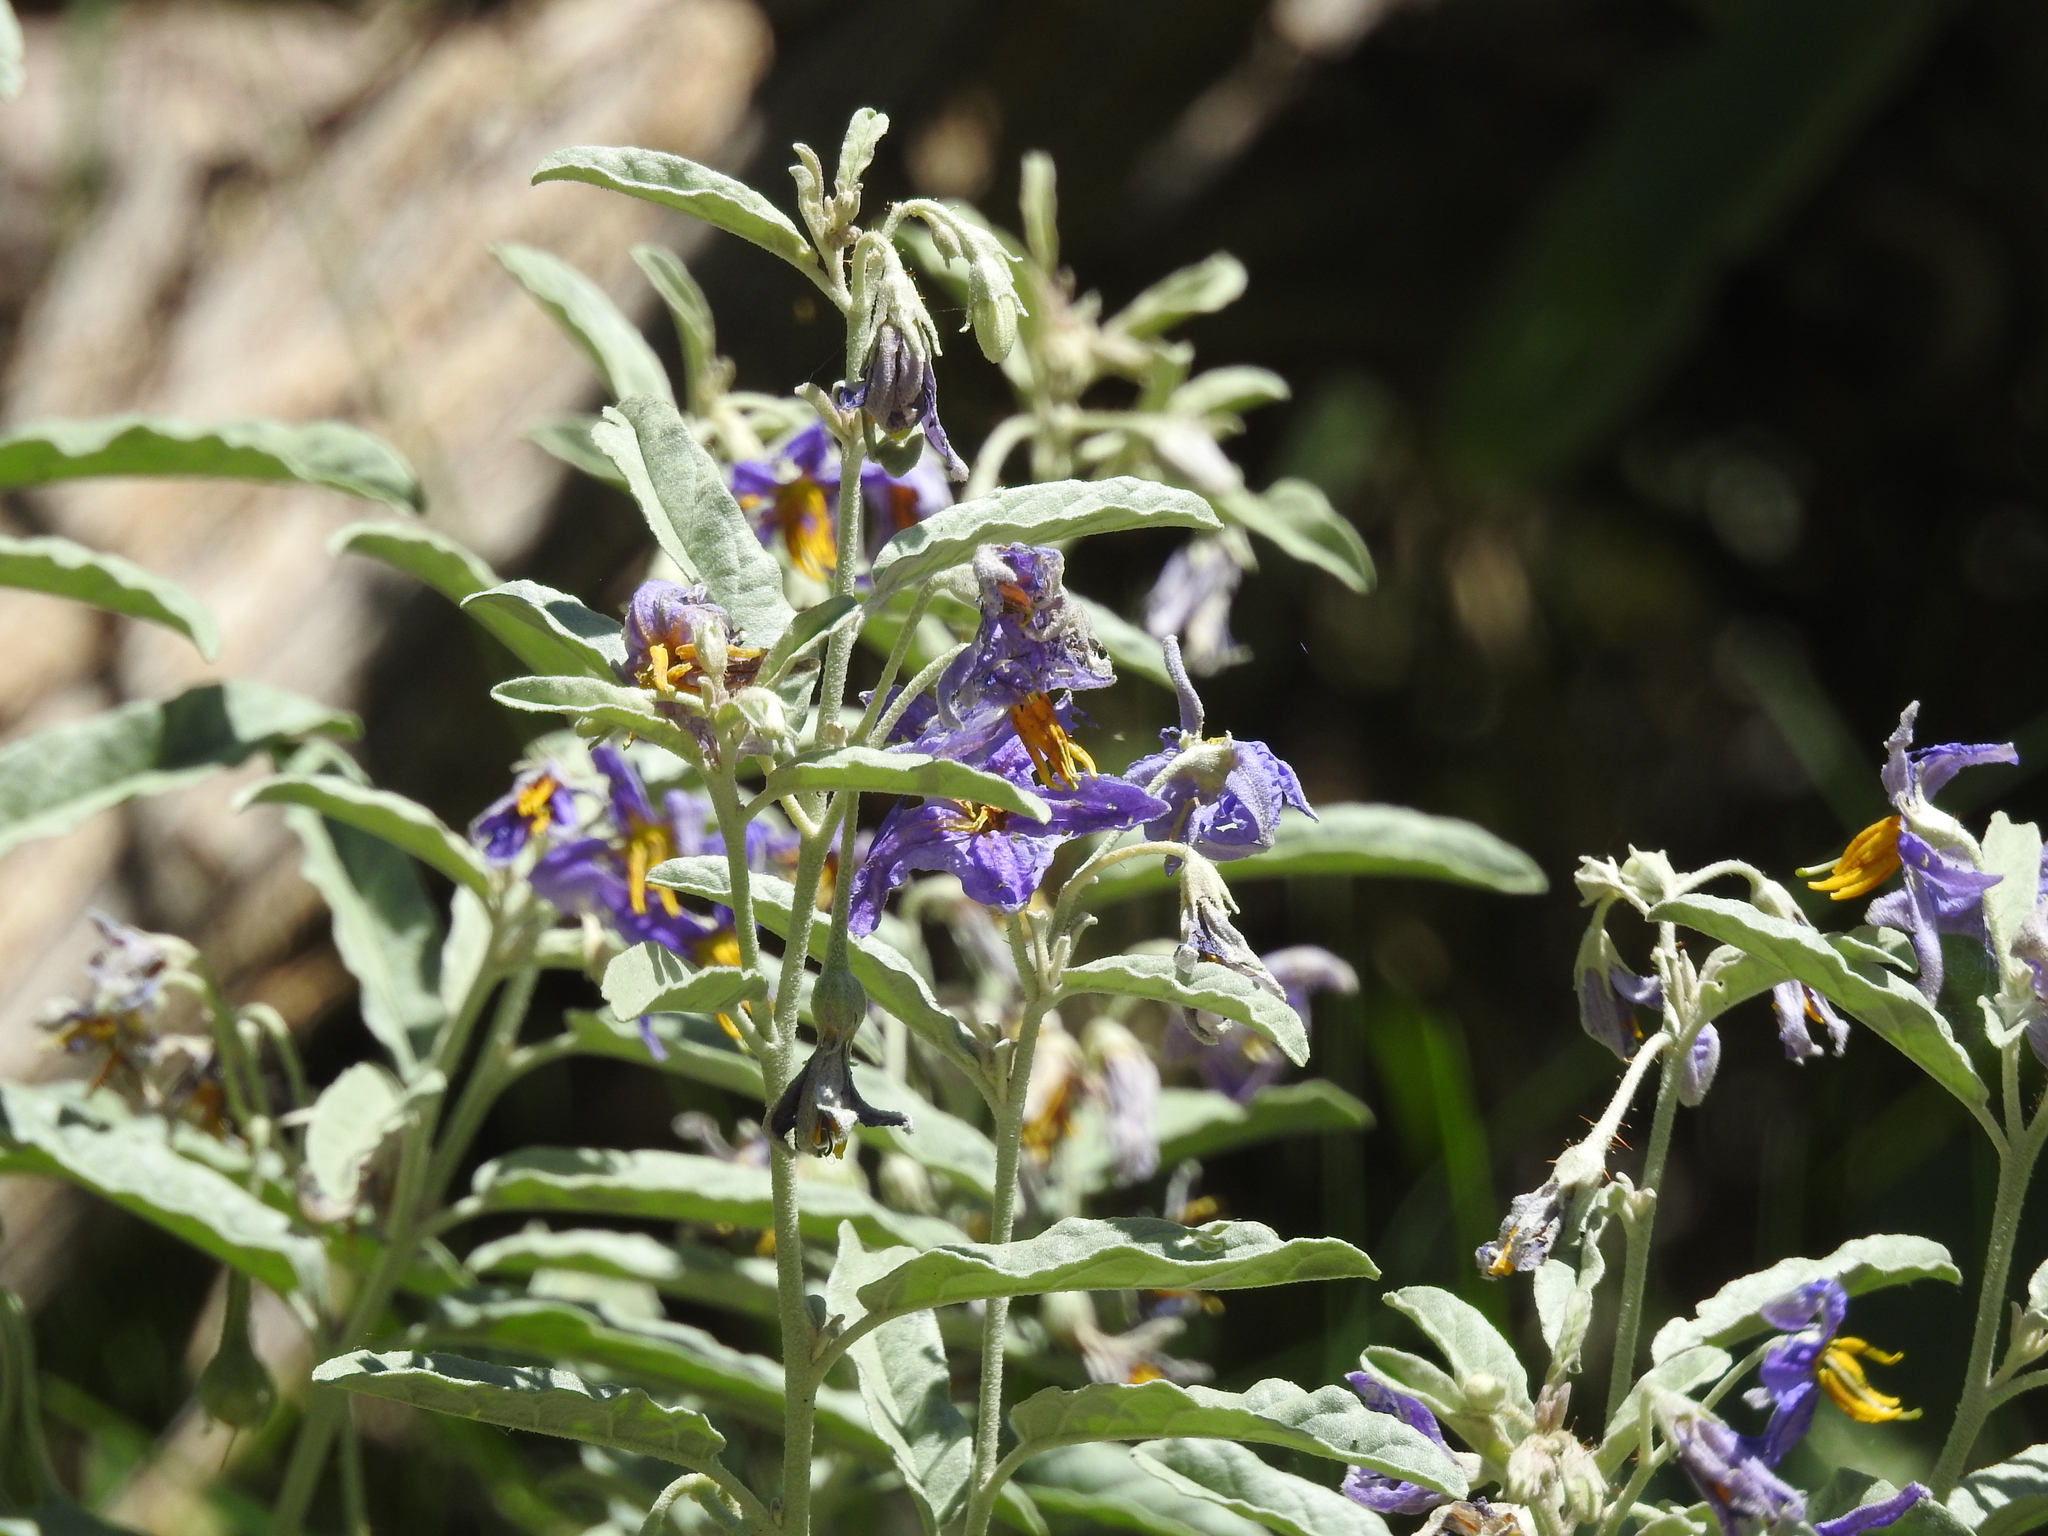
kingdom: Plantae
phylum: Tracheophyta
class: Magnoliopsida
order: Solanales
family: Solanaceae
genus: Solanum
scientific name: Solanum elaeagnifolium
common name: Silverleaf nightshade
